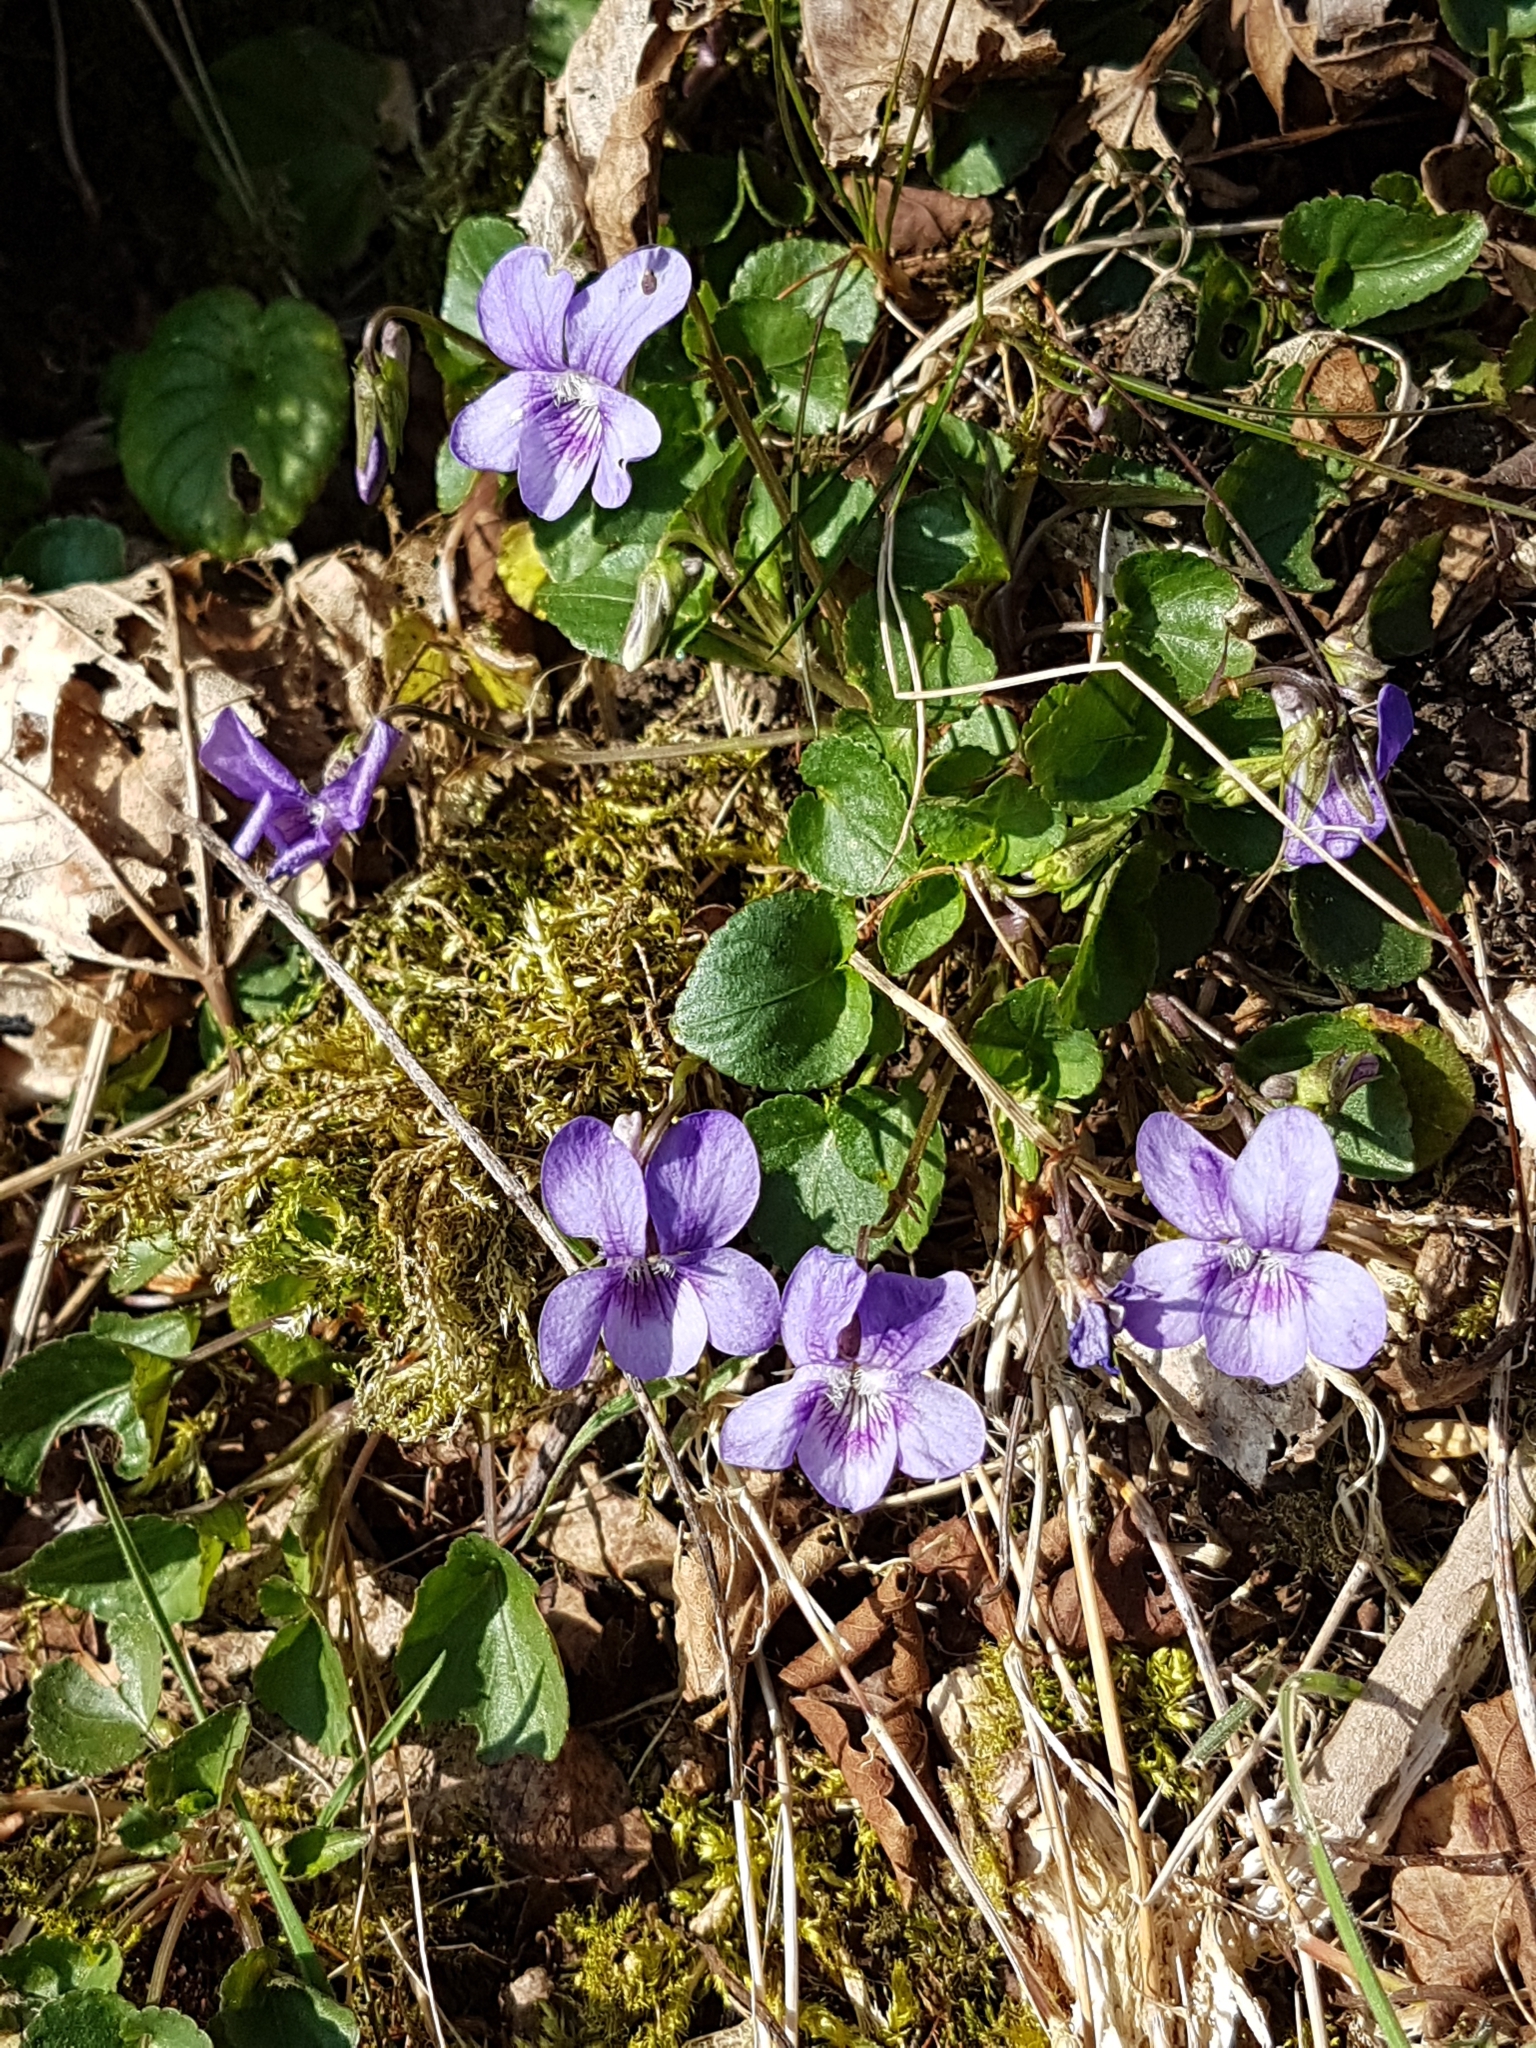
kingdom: Plantae
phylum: Tracheophyta
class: Magnoliopsida
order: Malpighiales
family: Violaceae
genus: Viola
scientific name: Viola riviniana
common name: Common dog-violet
